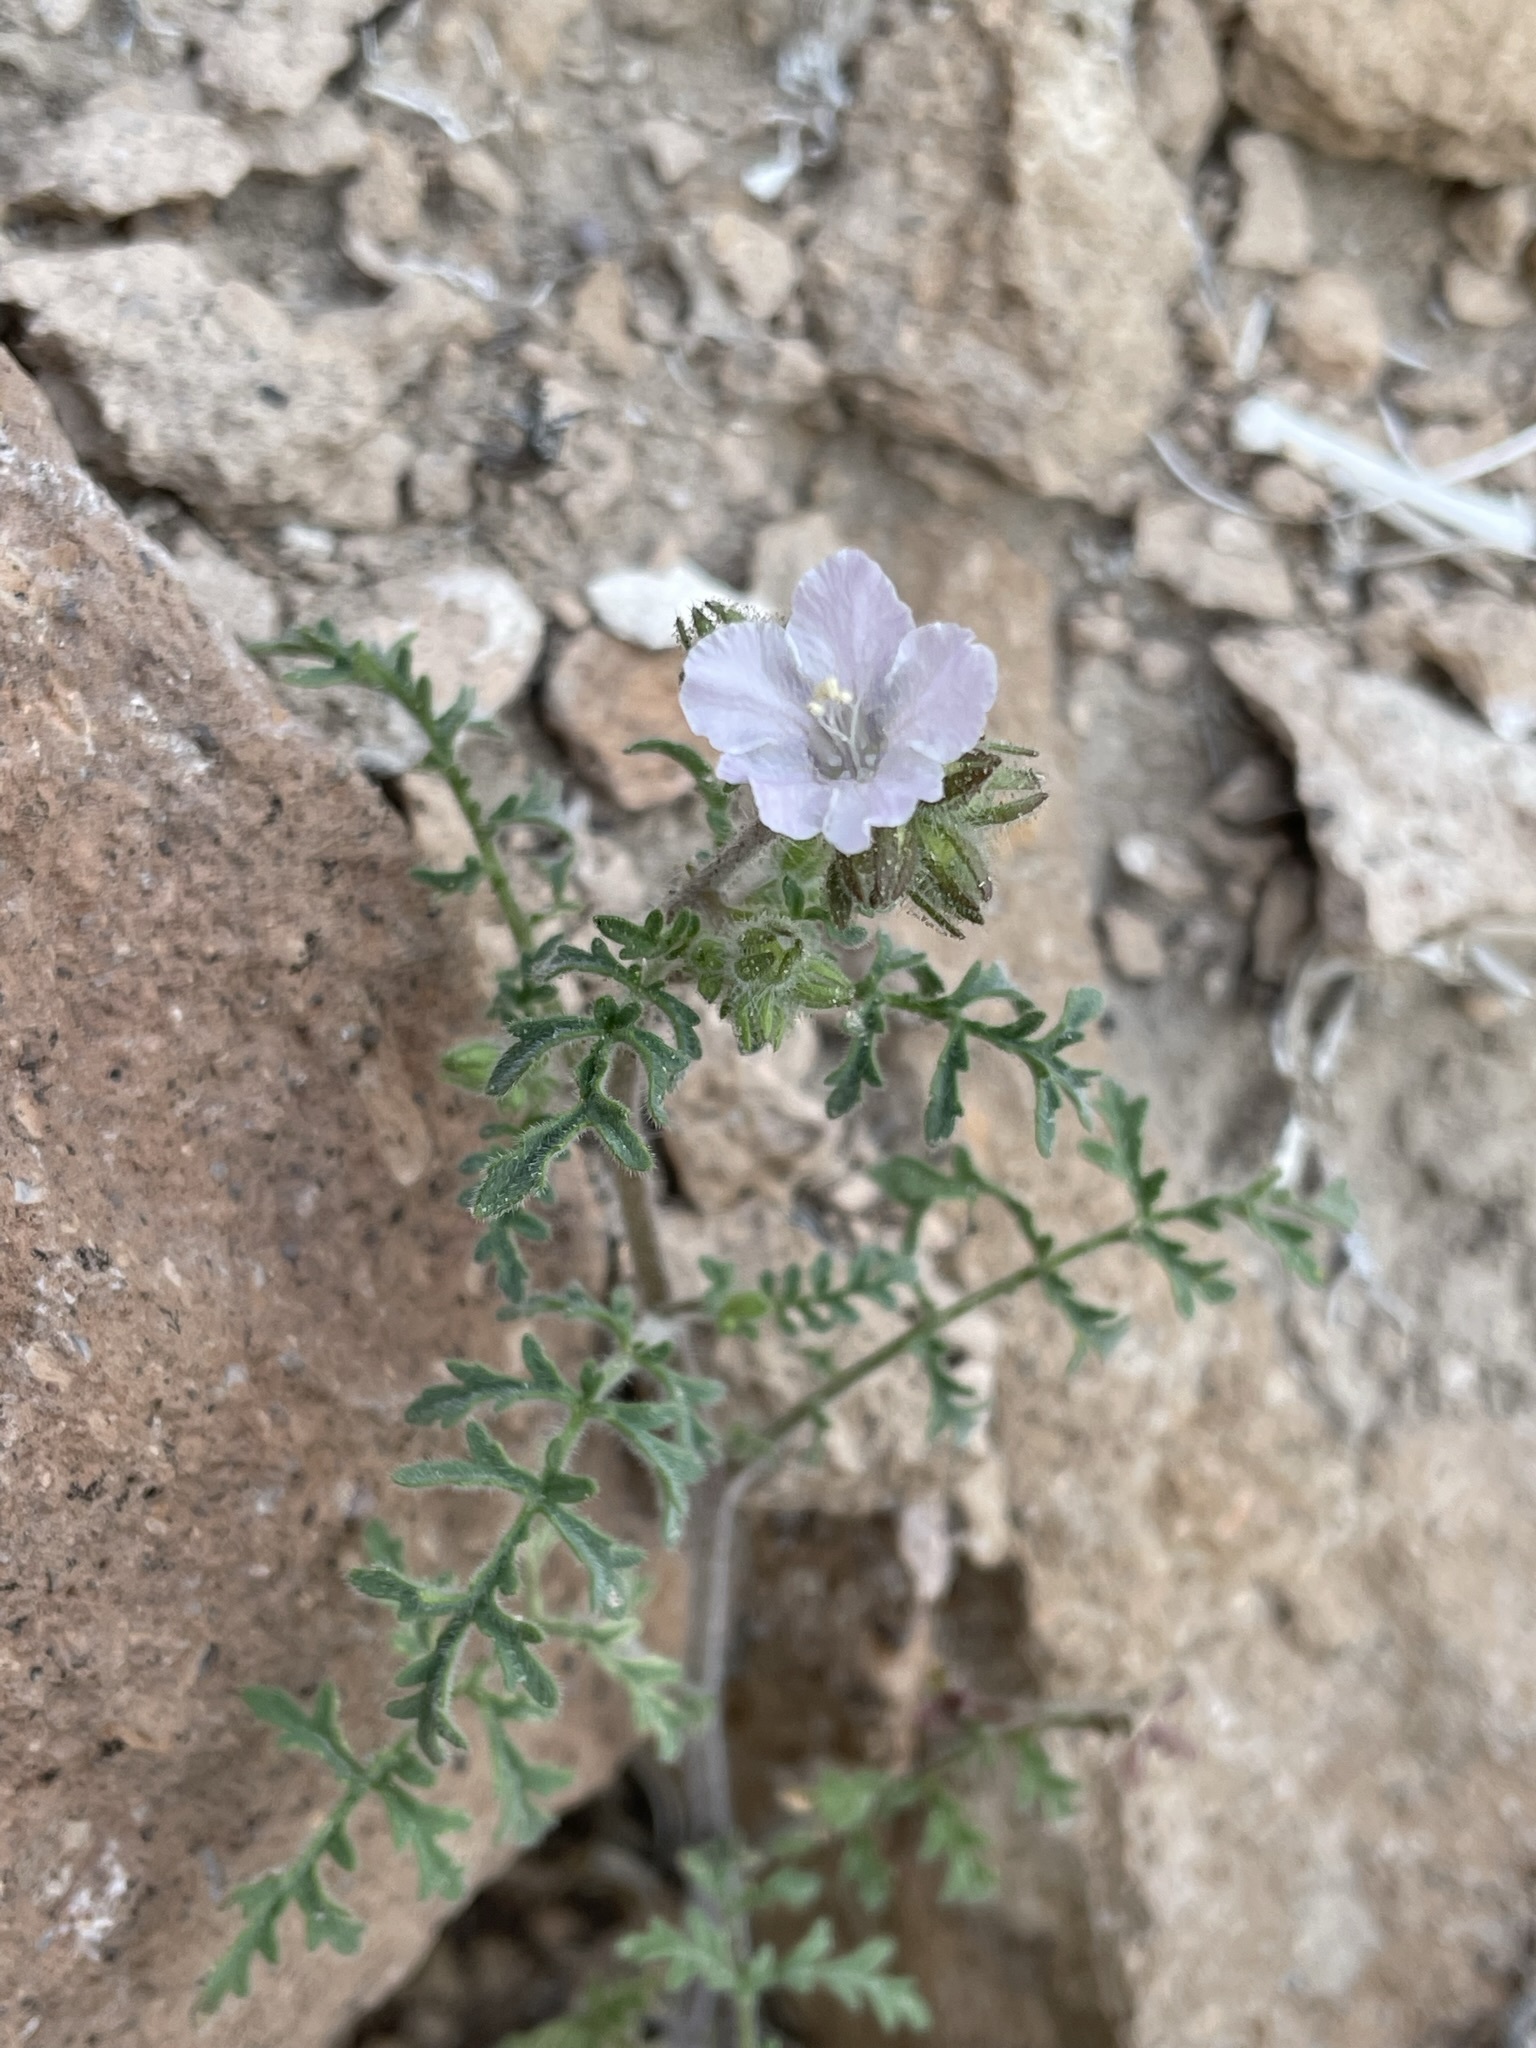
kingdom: Plantae
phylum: Tracheophyta
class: Magnoliopsida
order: Boraginales
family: Hydrophyllaceae
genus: Phacelia
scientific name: Phacelia vallis-mortae
